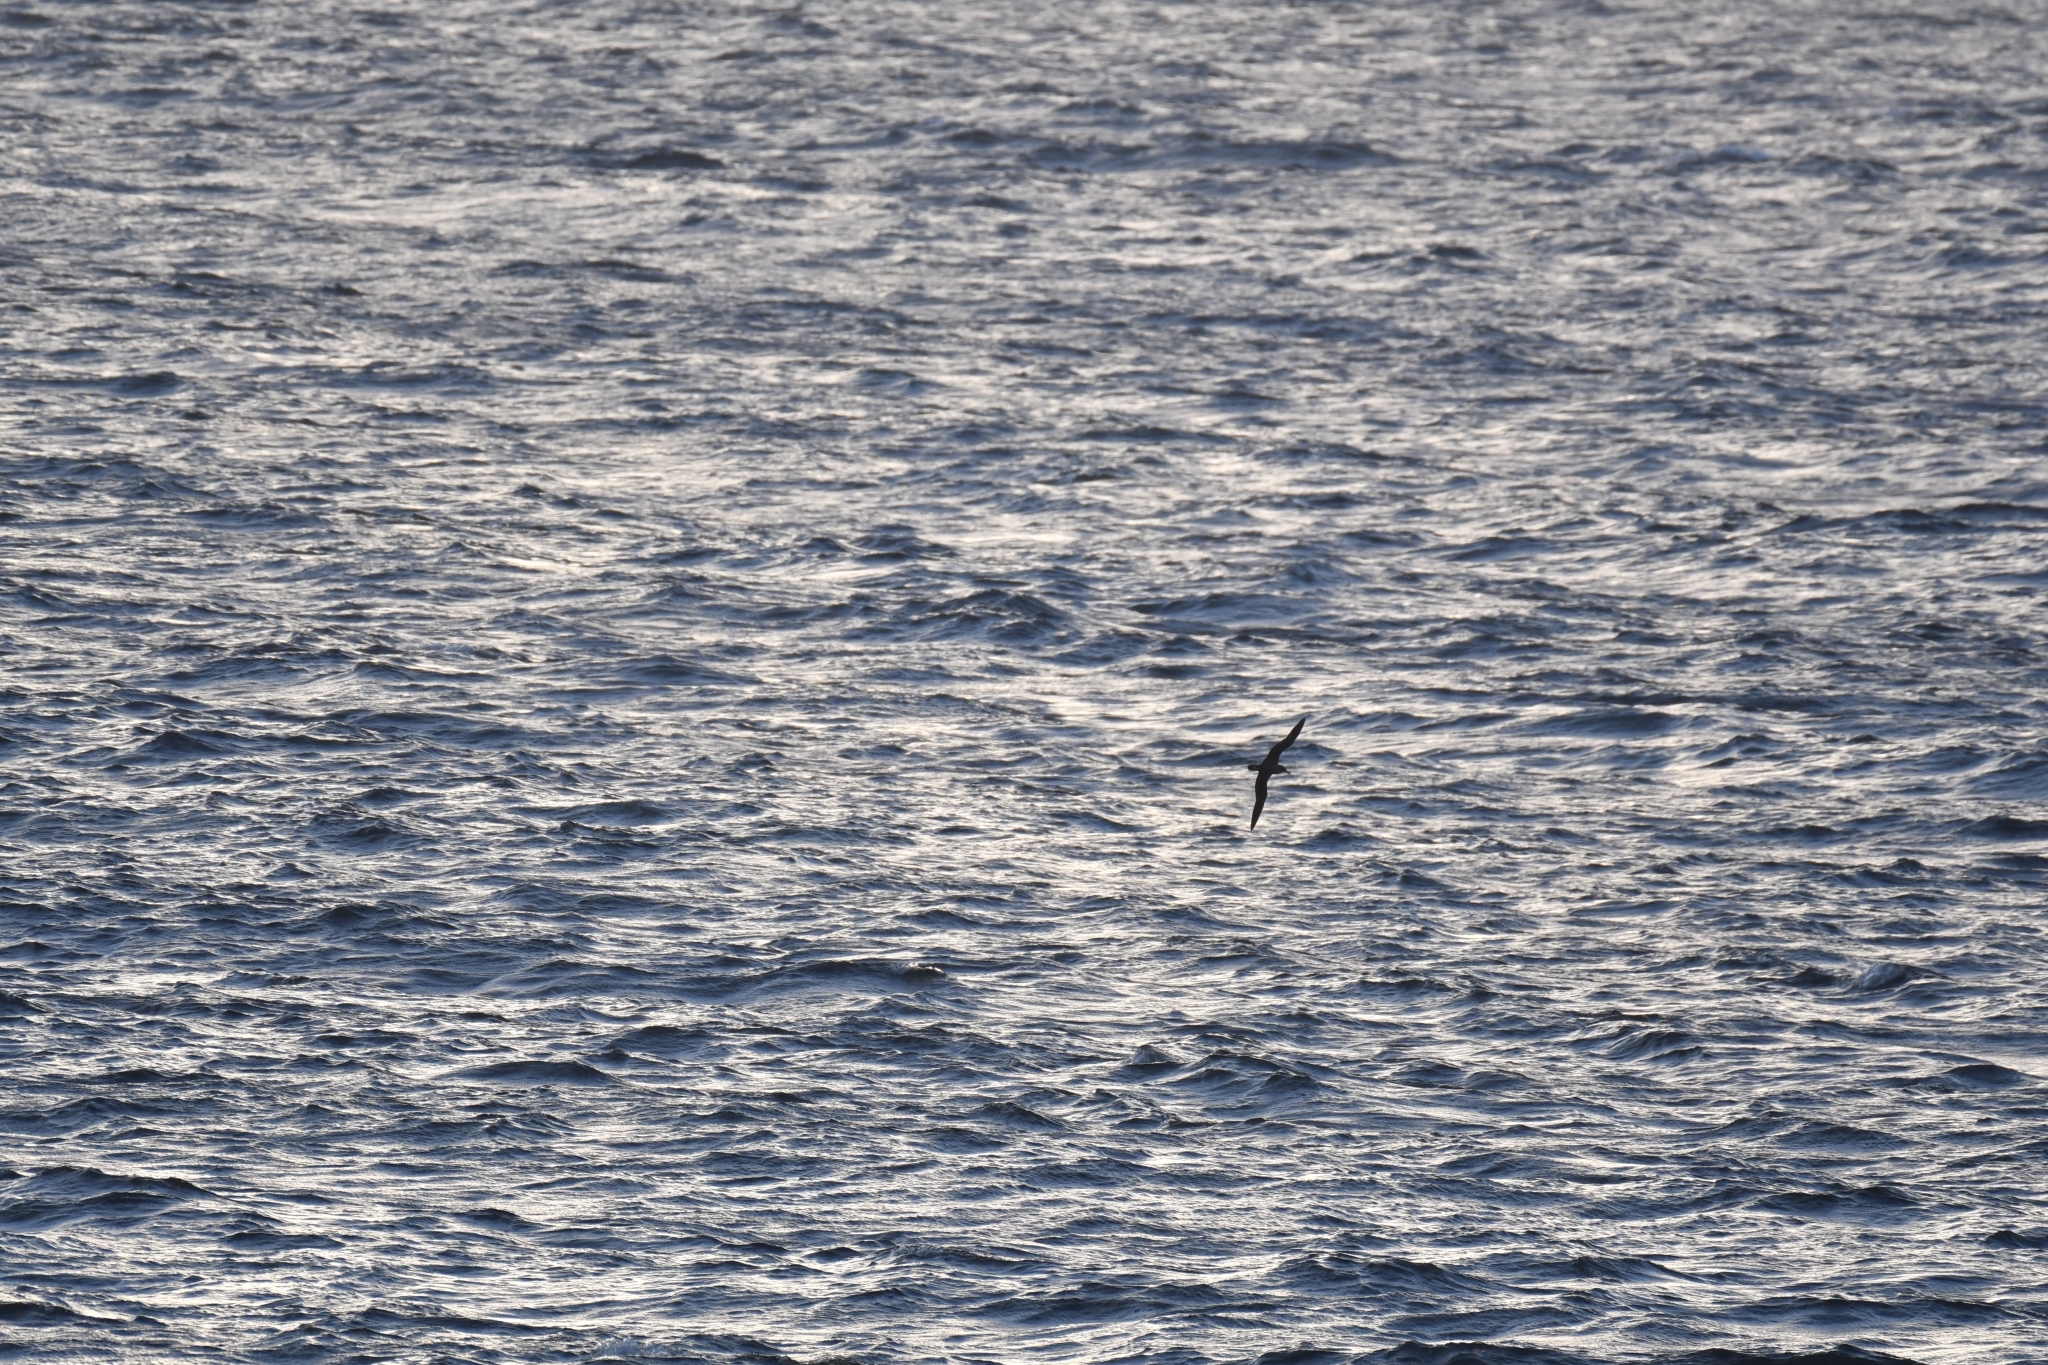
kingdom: Animalia
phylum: Chordata
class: Aves
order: Procellariiformes
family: Procellariidae
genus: Calonectris
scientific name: Calonectris diomedea
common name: Cory's shearwater
